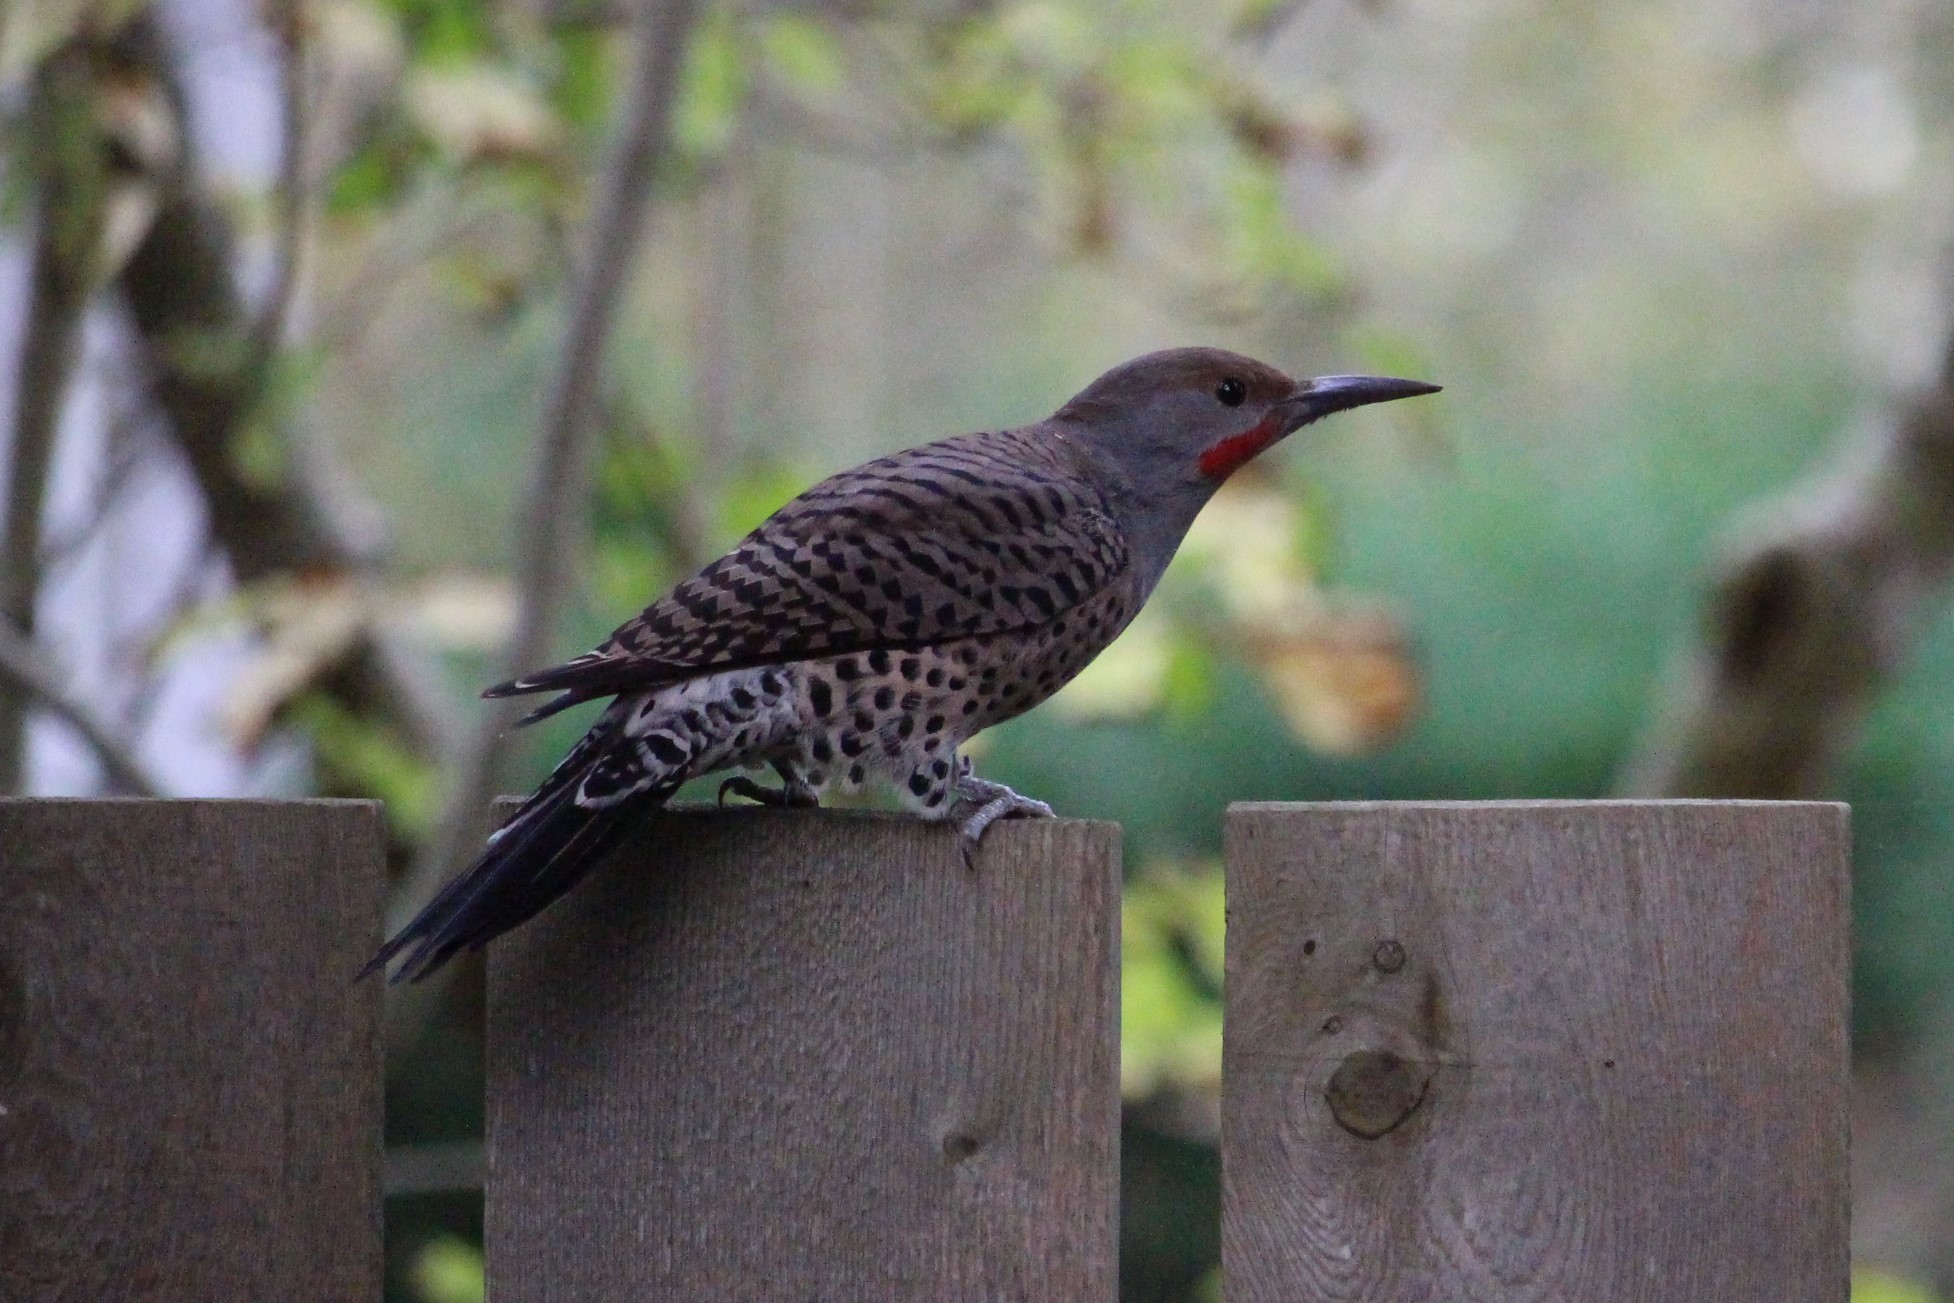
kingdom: Animalia
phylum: Chordata
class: Aves
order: Piciformes
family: Picidae
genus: Colaptes
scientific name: Colaptes auratus
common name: Northern flicker
